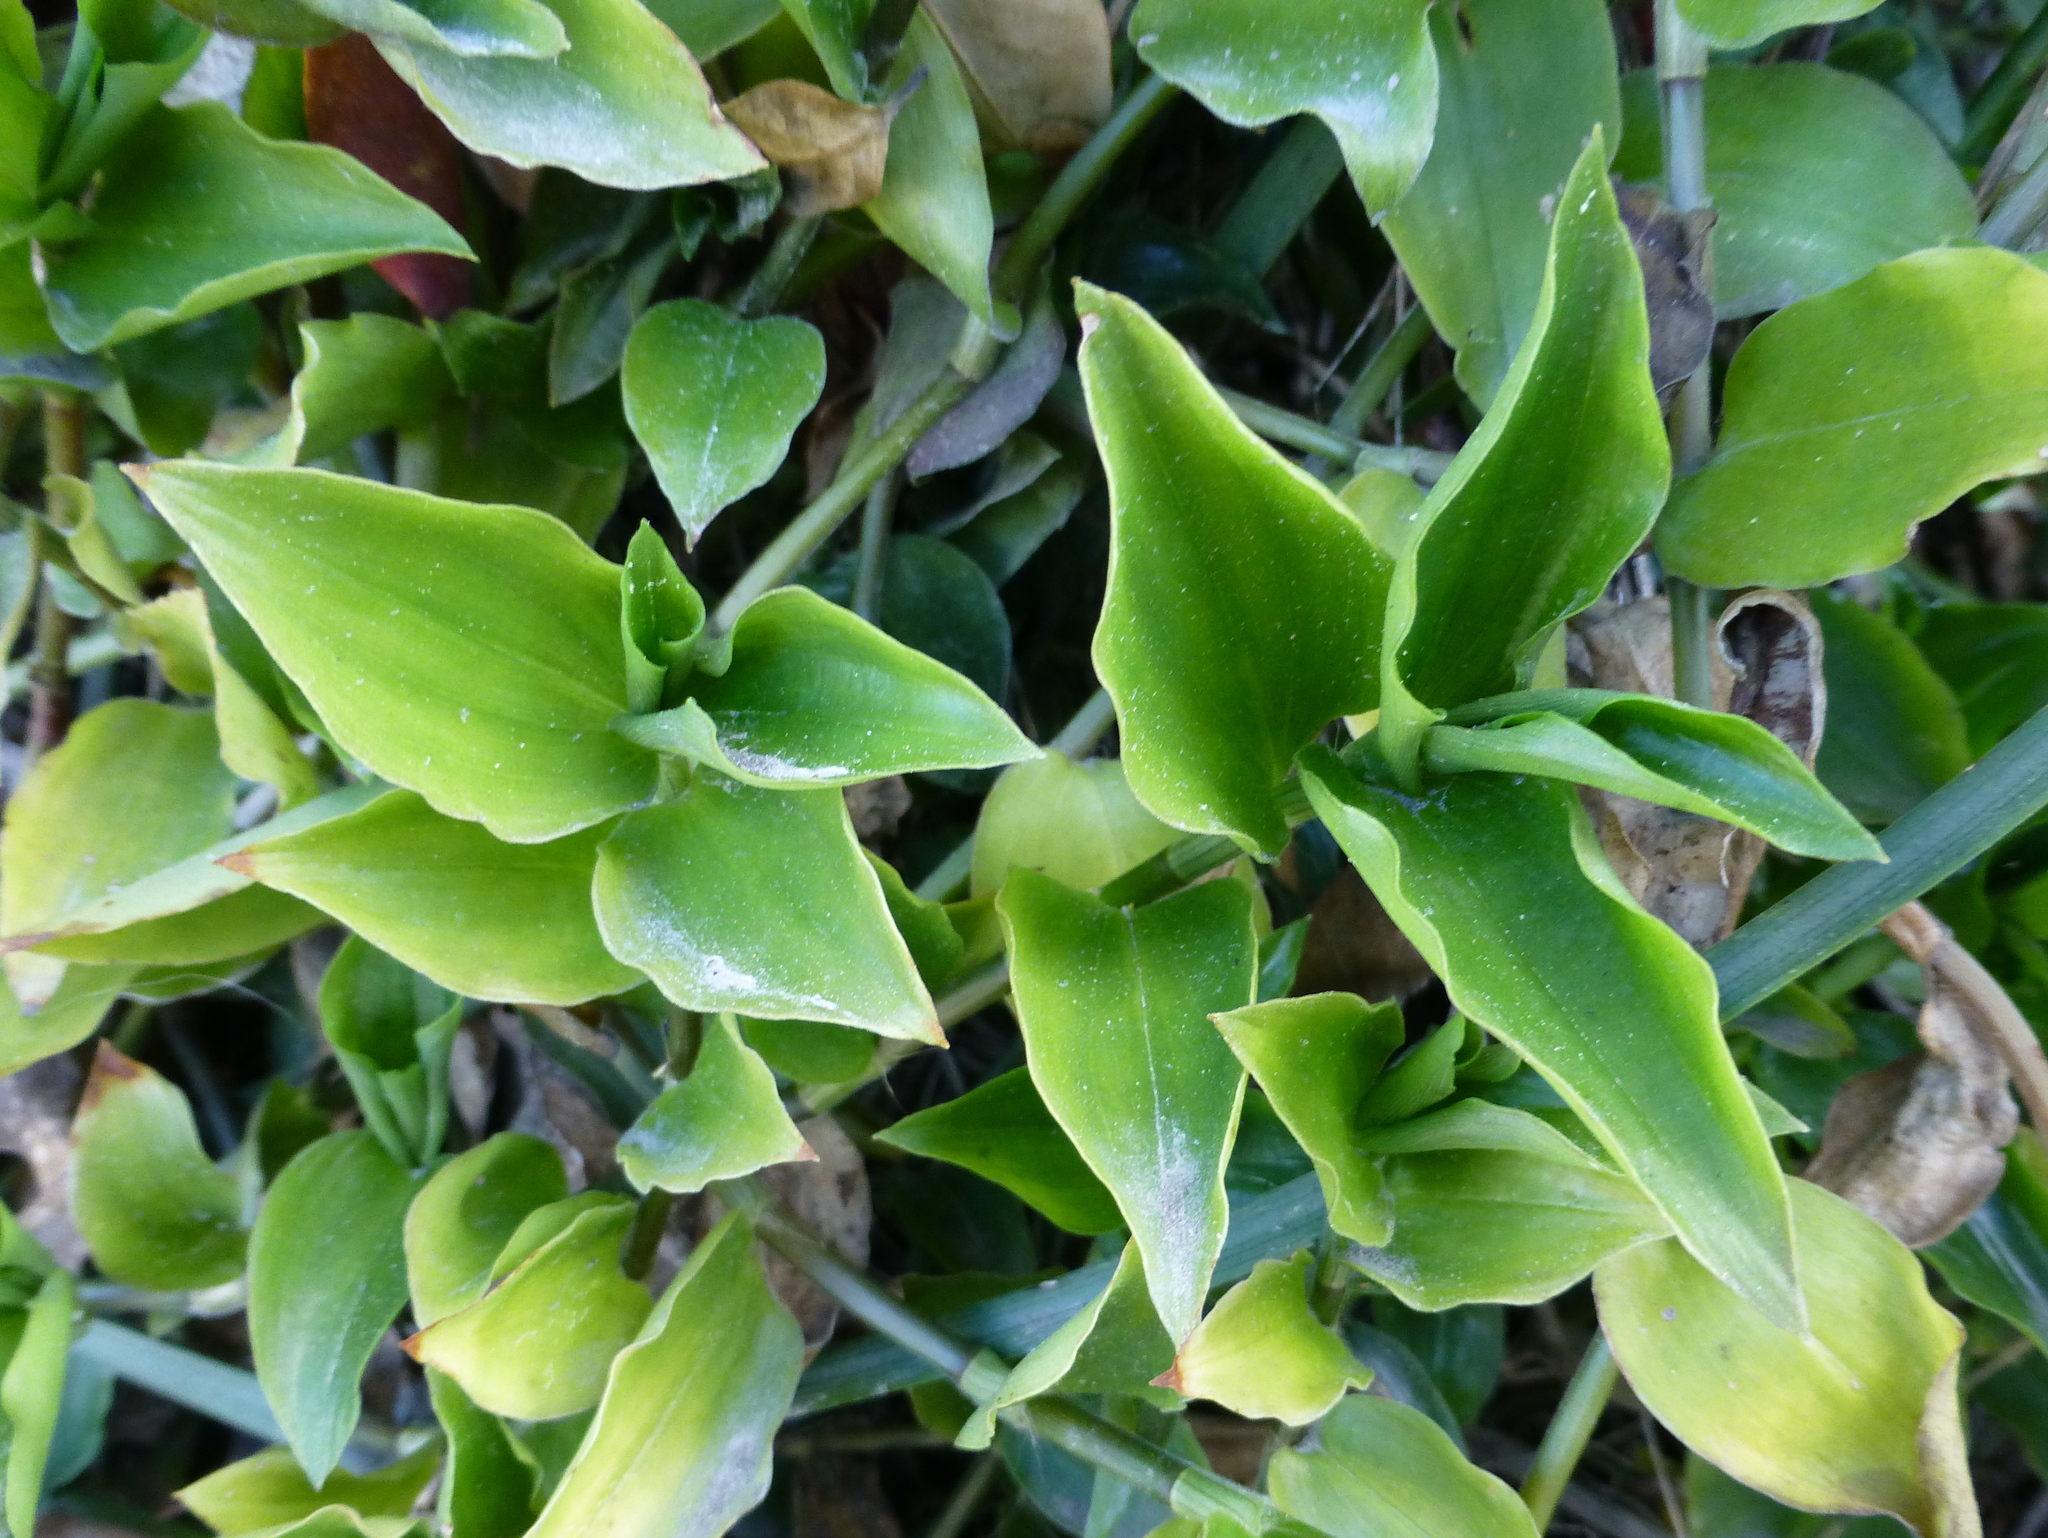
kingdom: Plantae
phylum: Tracheophyta
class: Liliopsida
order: Commelinales
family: Commelinaceae
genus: Tradescantia
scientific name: Tradescantia fluminensis
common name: Wandering-jew
